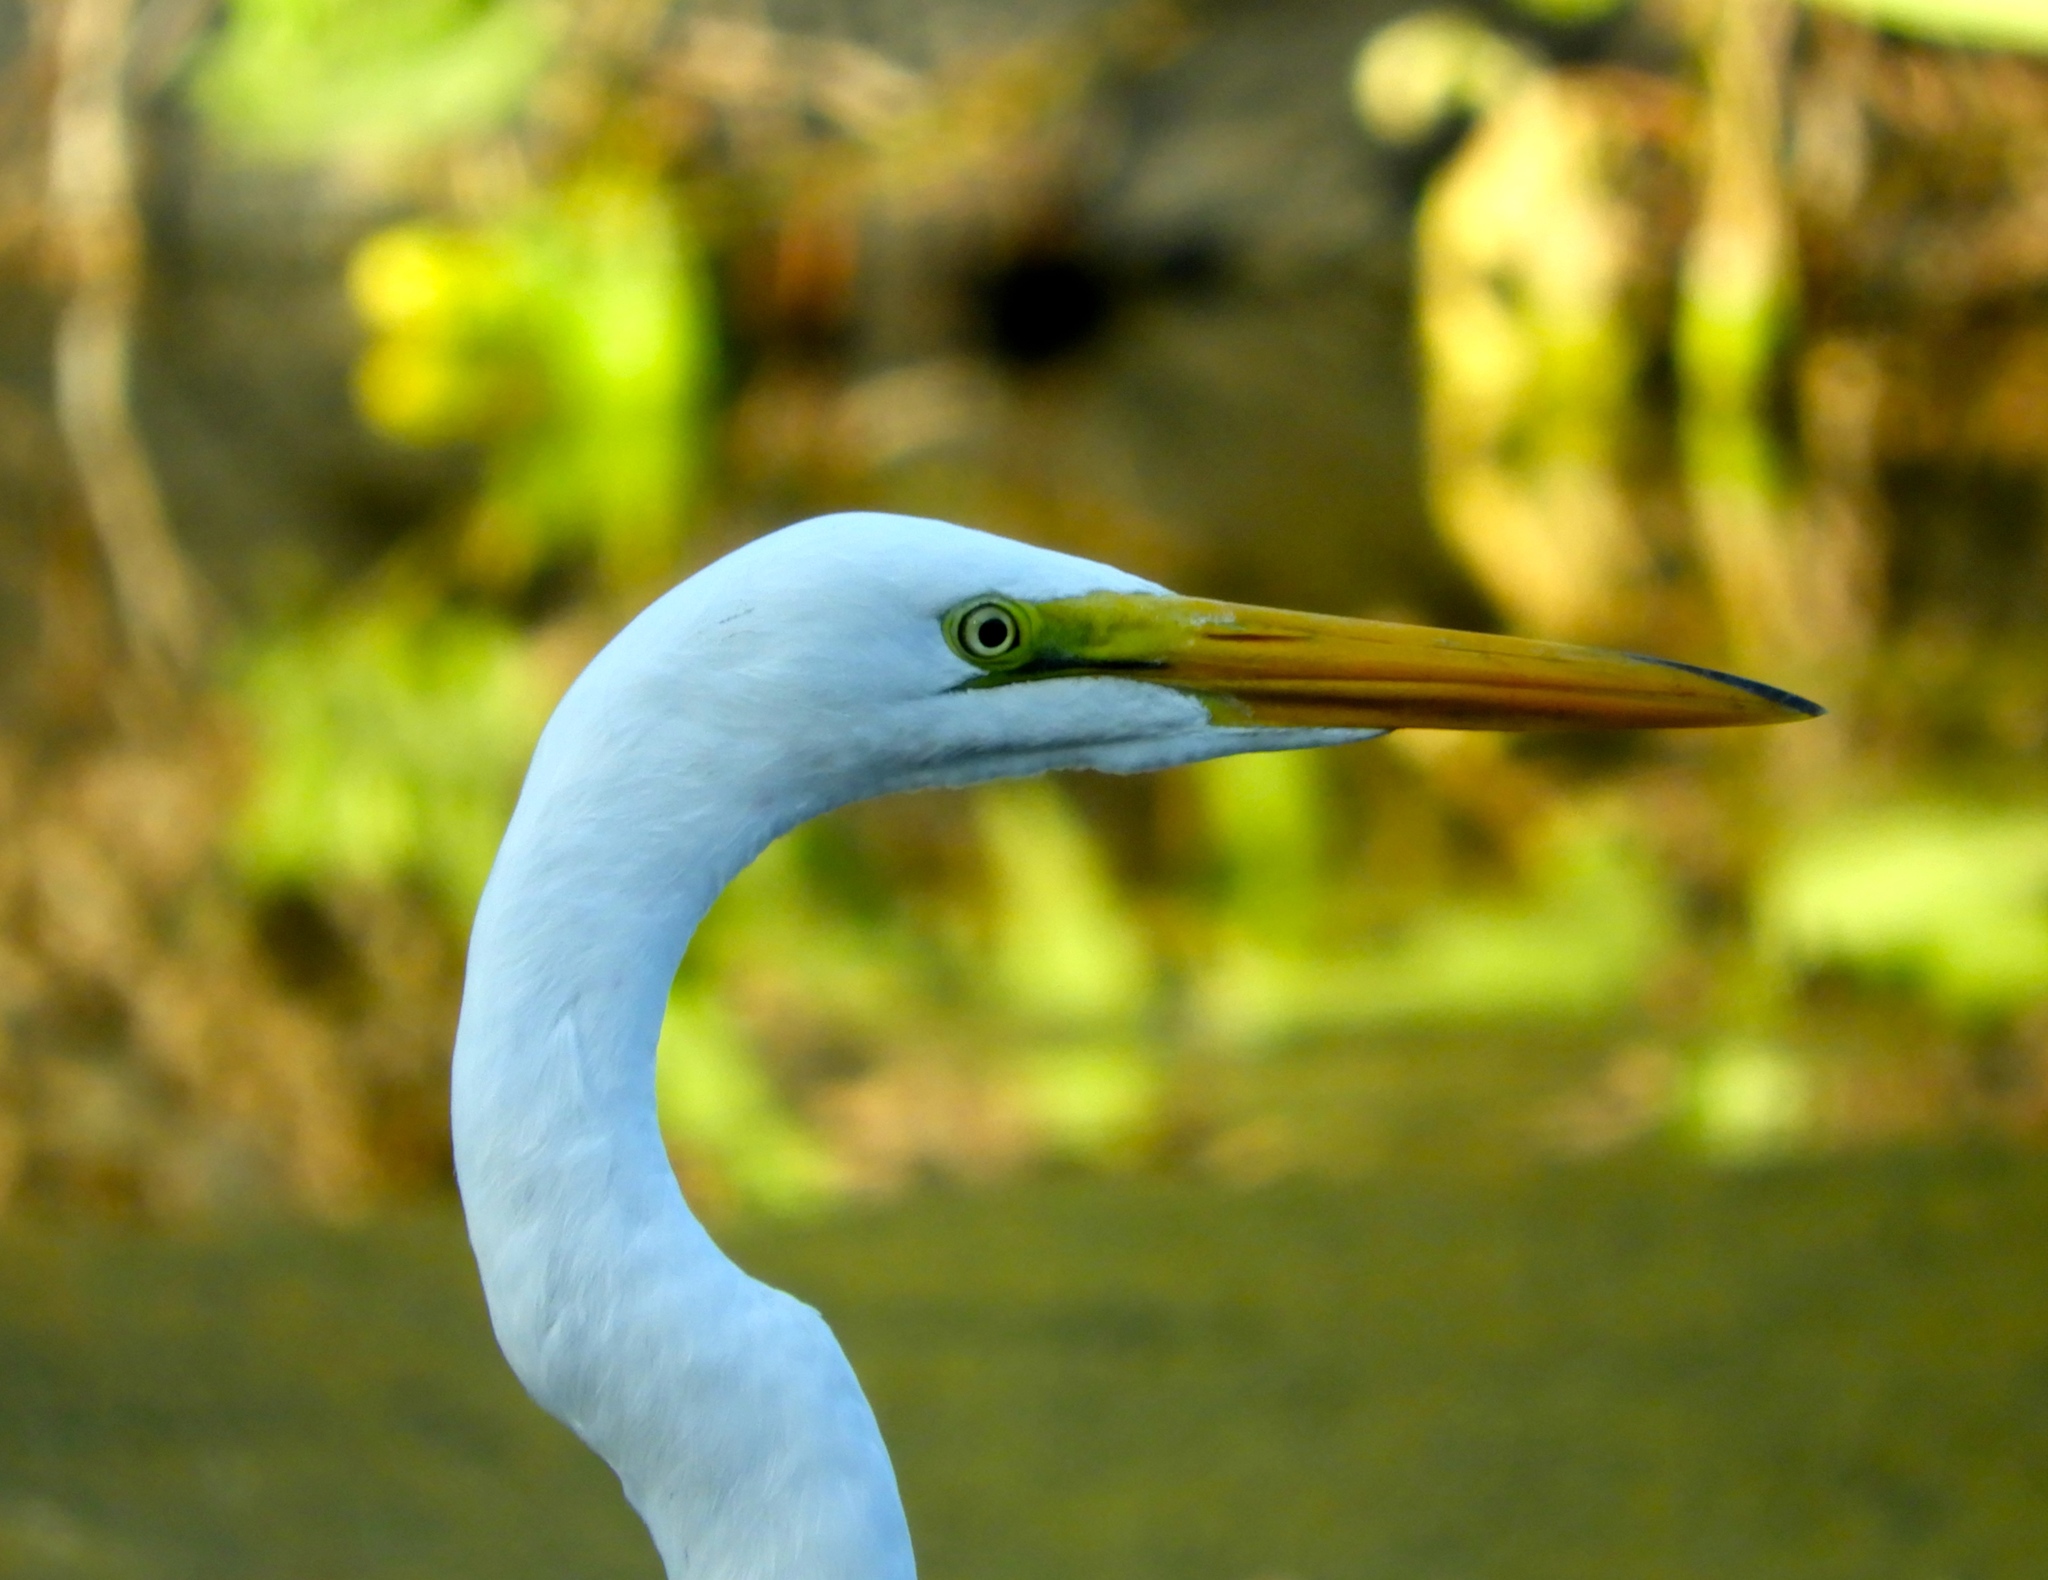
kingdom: Animalia
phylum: Chordata
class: Aves
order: Pelecaniformes
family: Ardeidae
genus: Ardea
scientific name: Ardea alba
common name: Great egret
